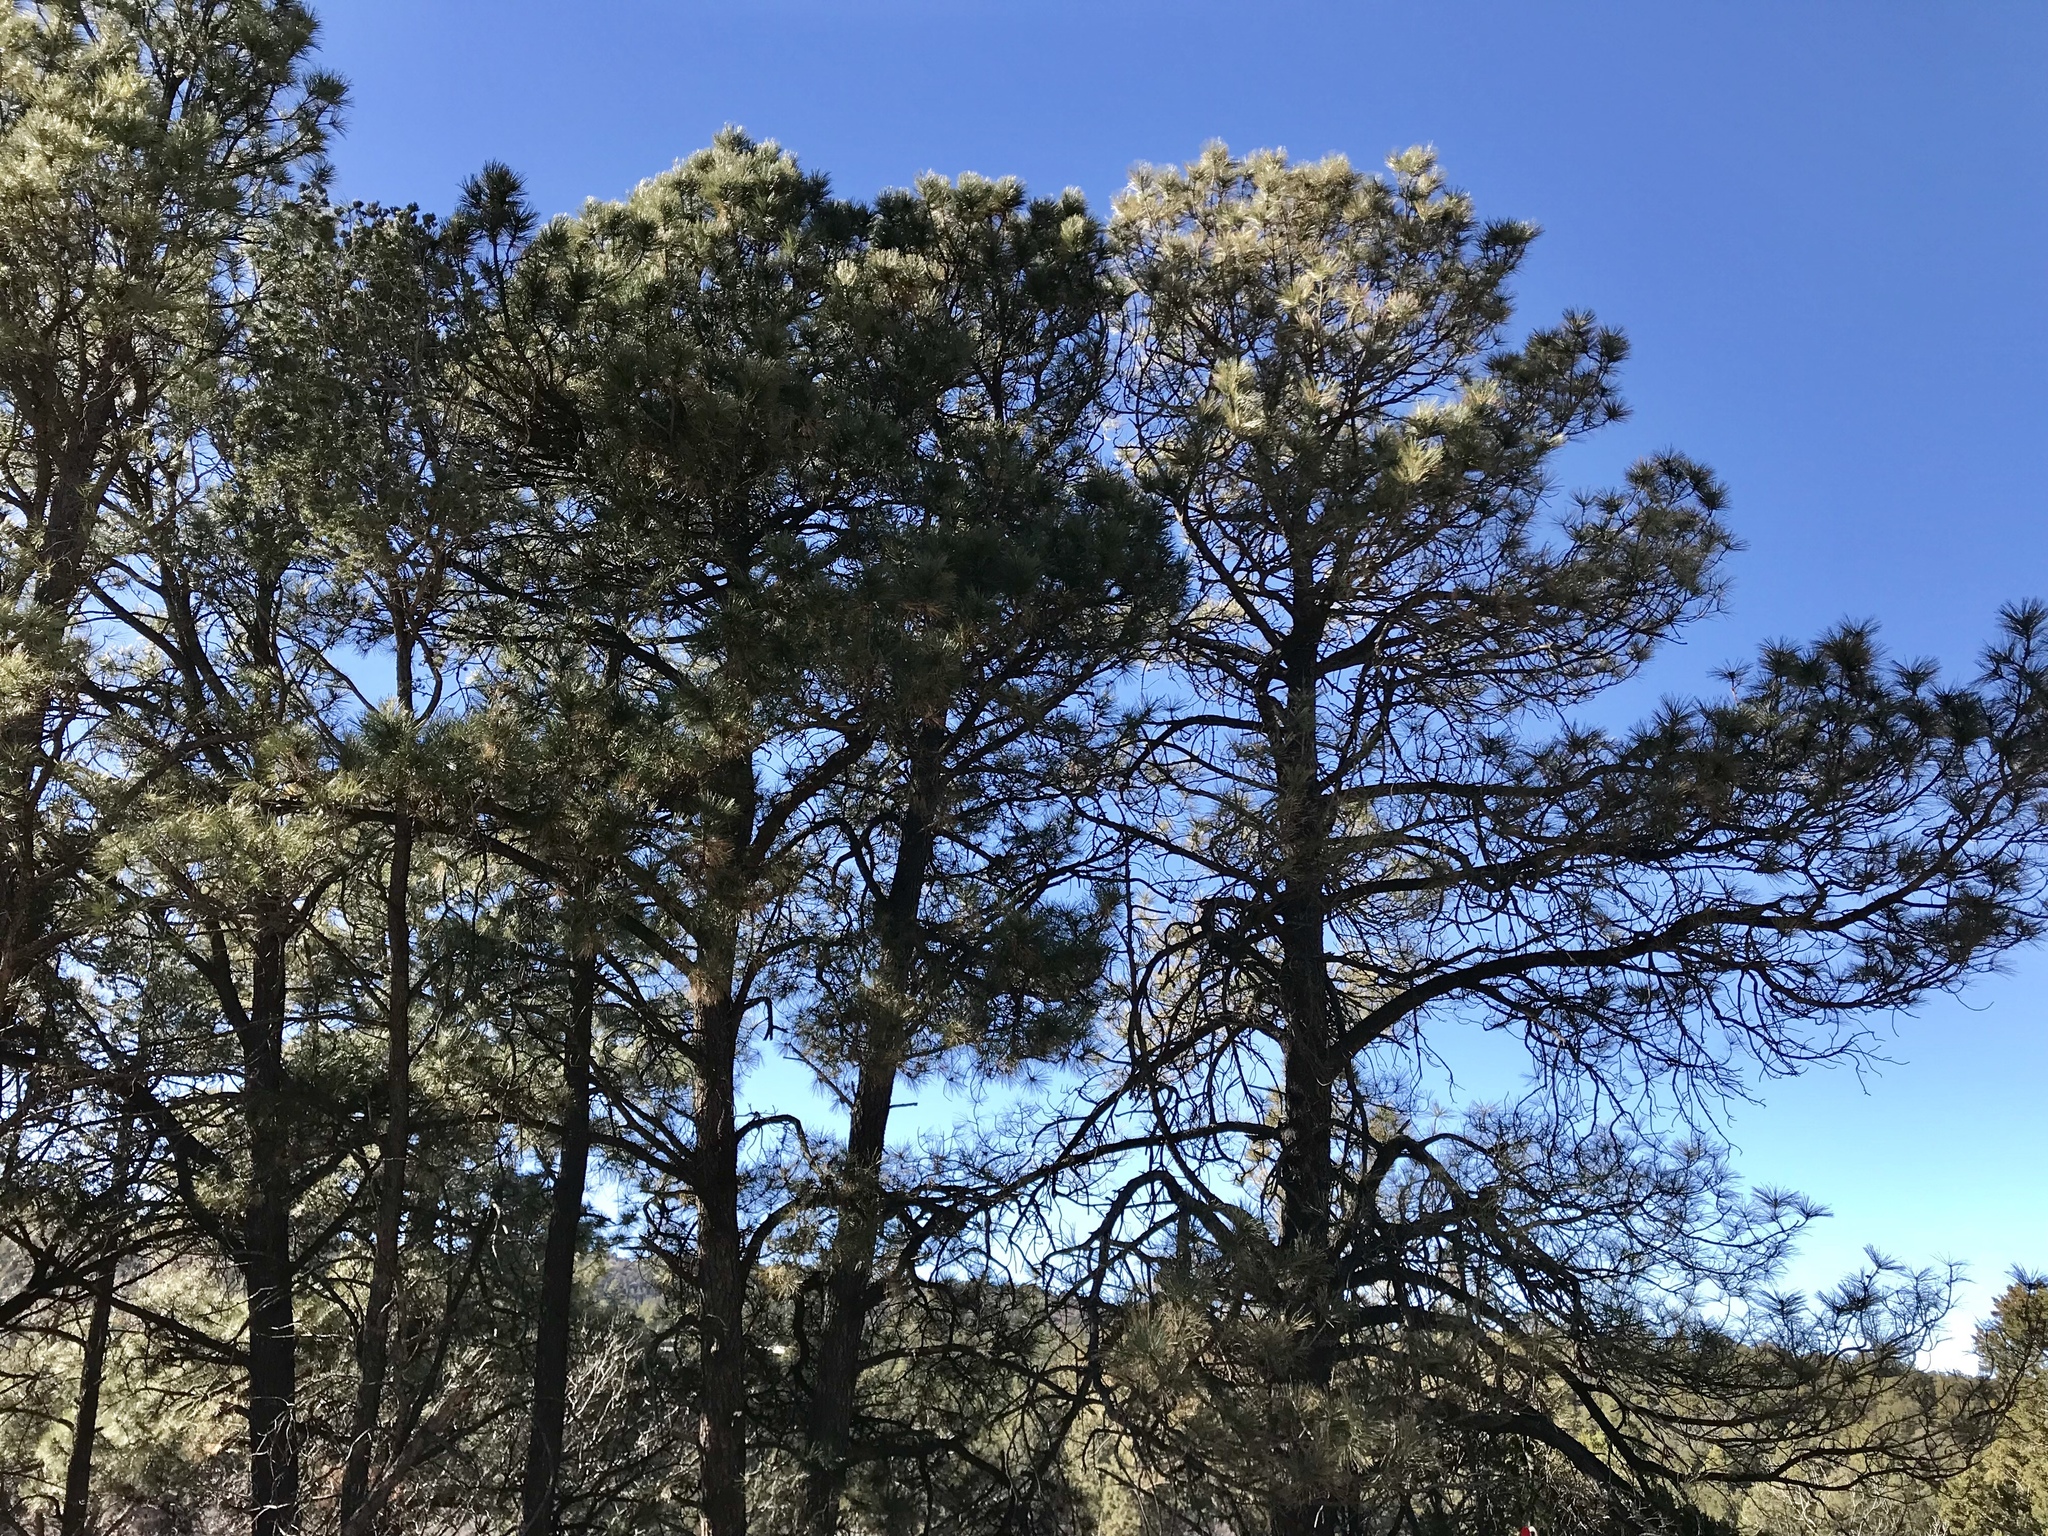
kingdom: Plantae
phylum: Tracheophyta
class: Pinopsida
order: Pinales
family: Pinaceae
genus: Pinus
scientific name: Pinus ponderosa
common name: Western yellow-pine
